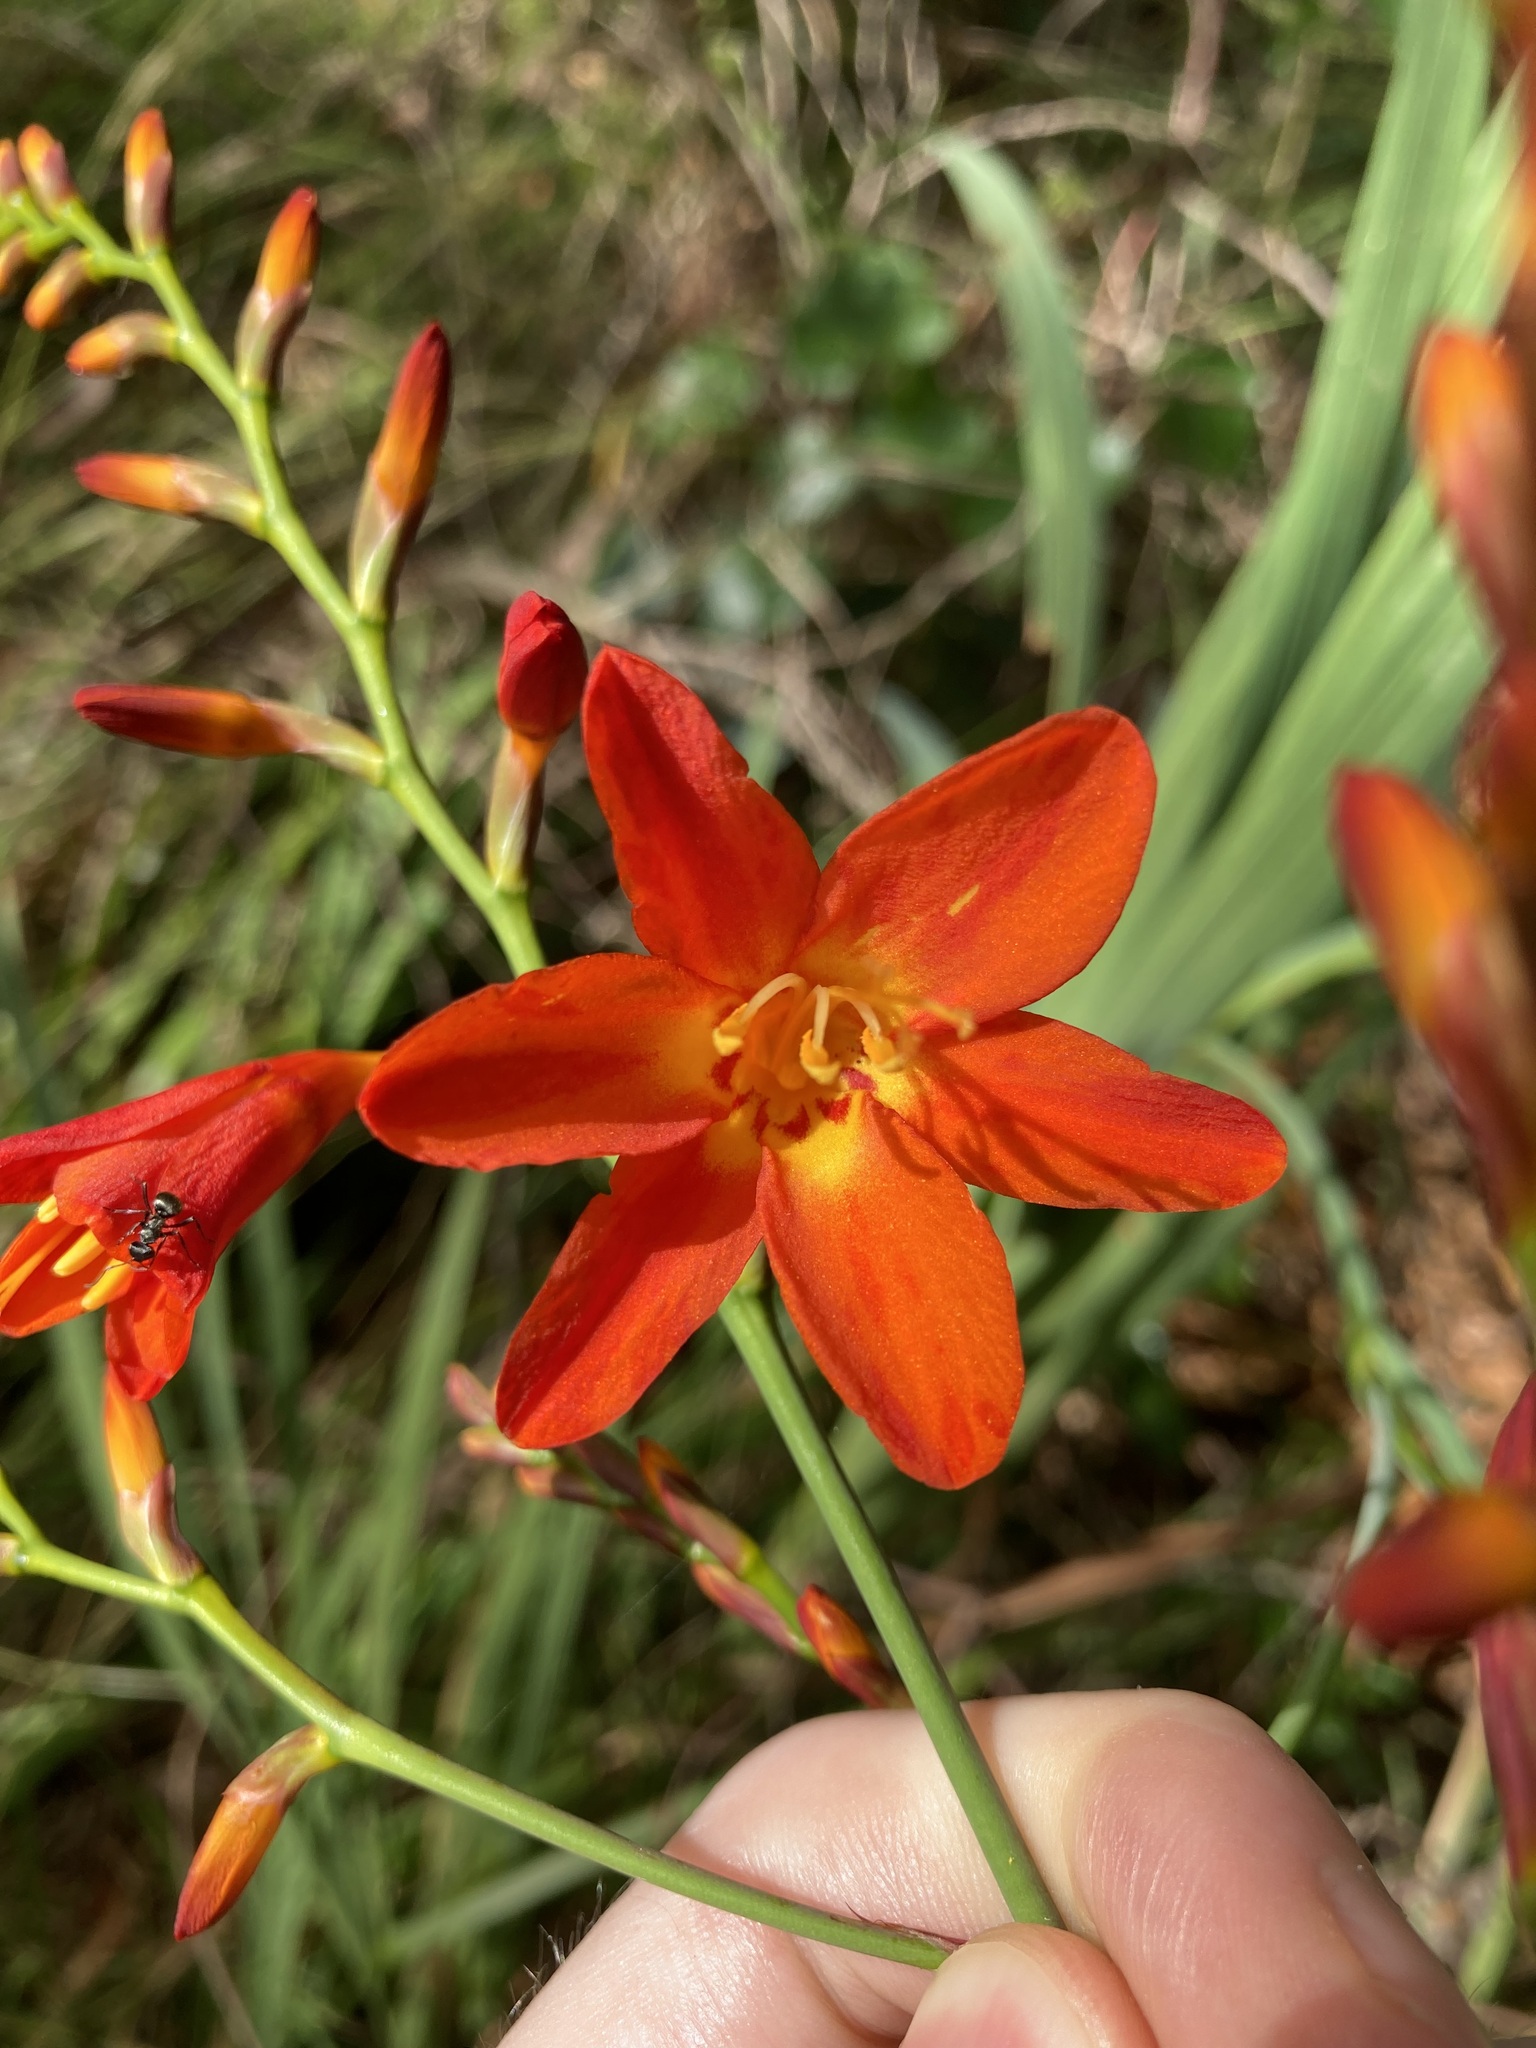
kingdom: Plantae
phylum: Tracheophyta
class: Liliopsida
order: Asparagales
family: Iridaceae
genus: Crocosmia
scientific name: Crocosmia crocosmiiflora
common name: Montbretia
